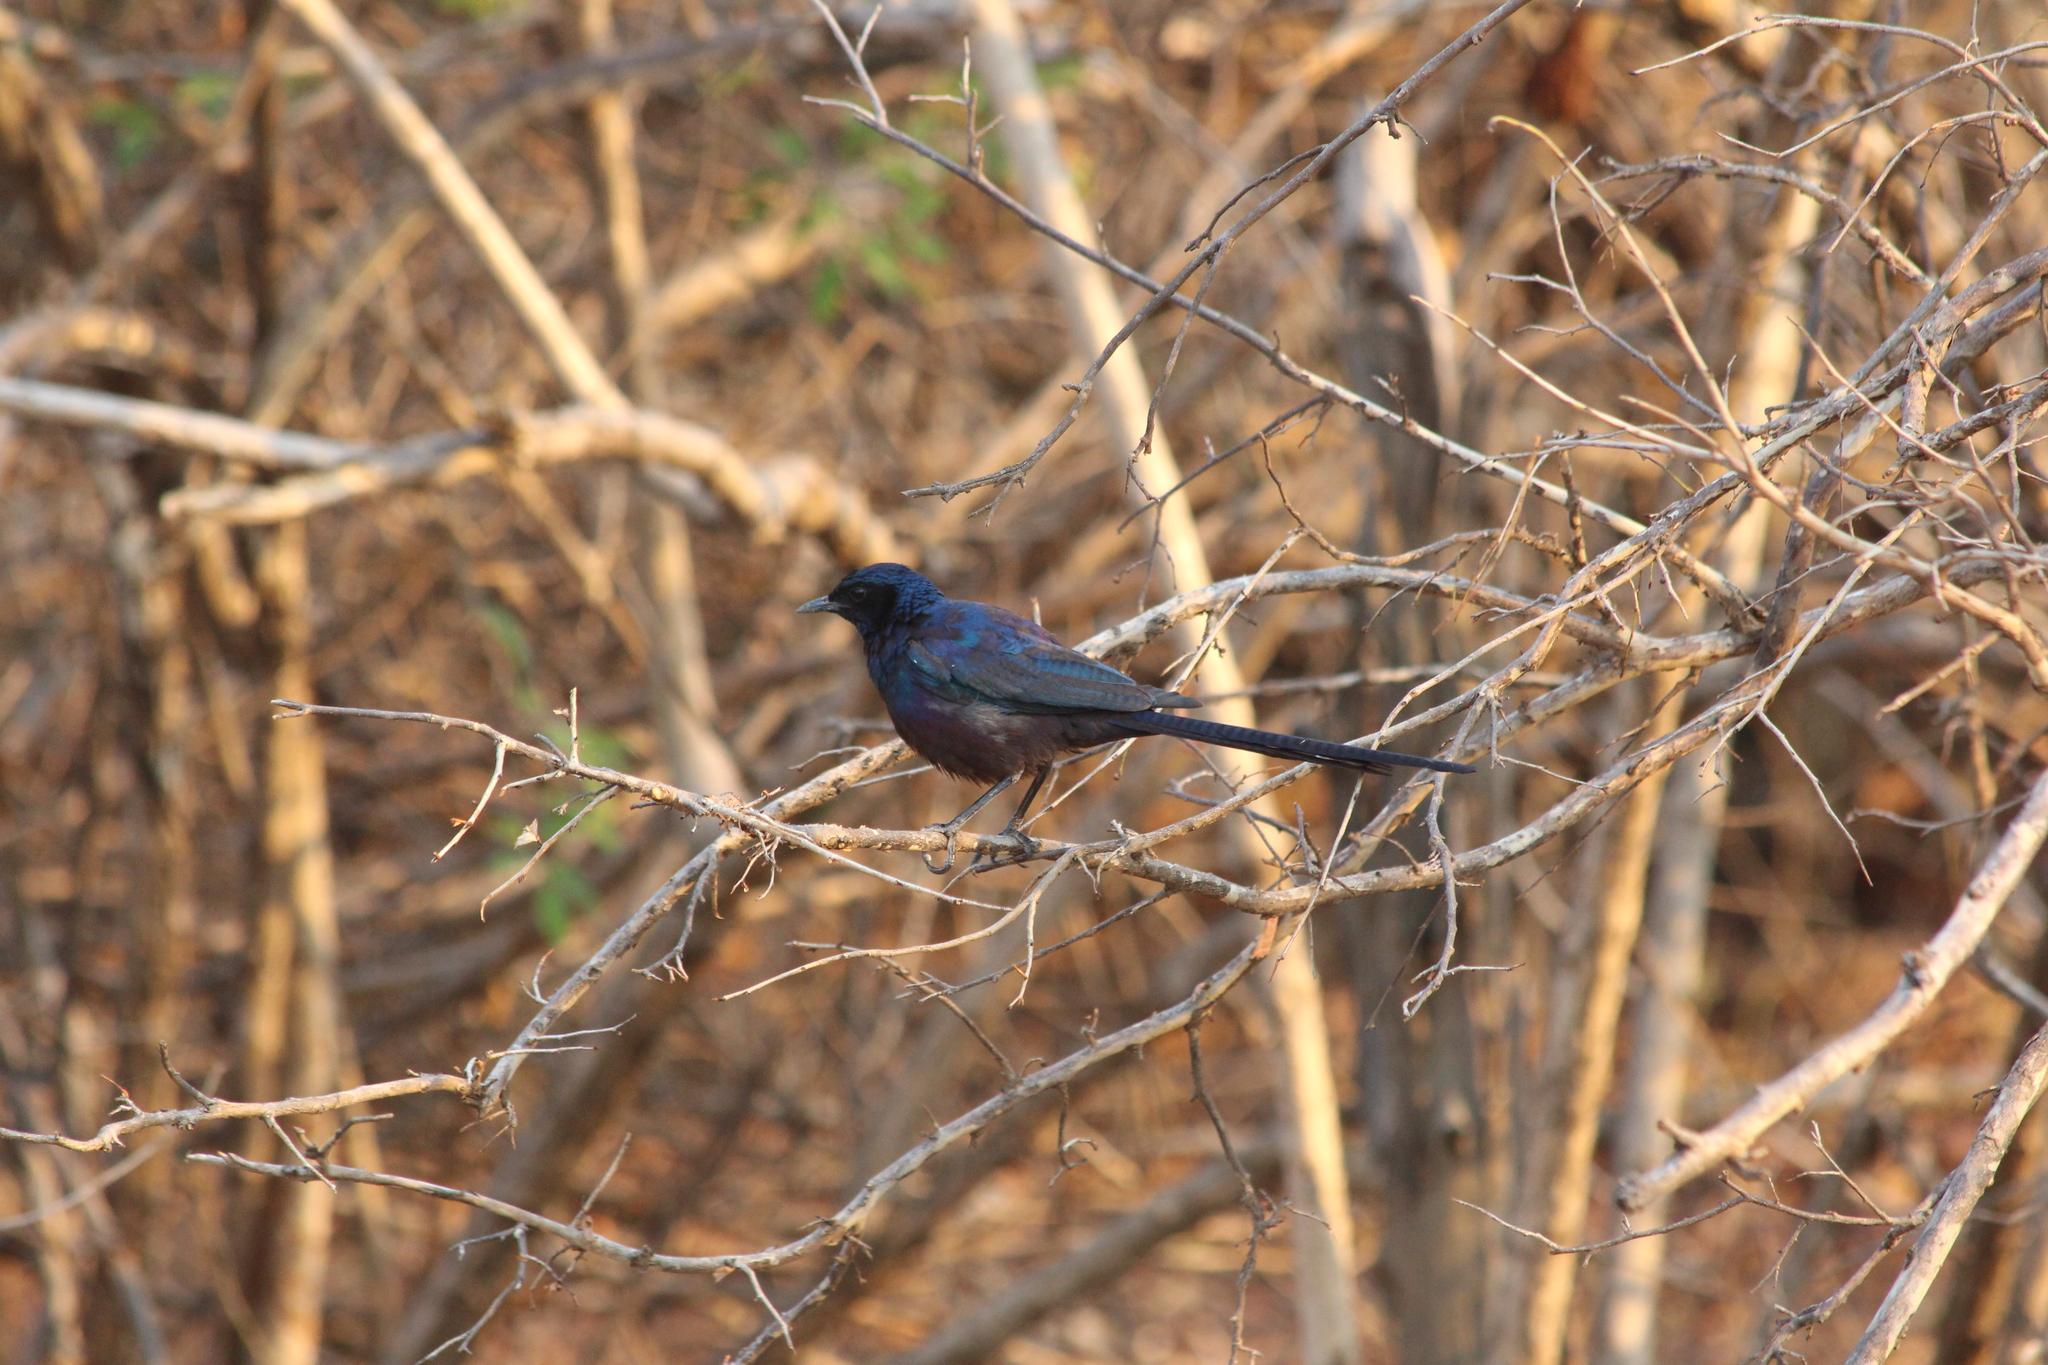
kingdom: Animalia
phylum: Chordata
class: Aves
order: Passeriformes
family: Sturnidae
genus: Lamprotornis
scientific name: Lamprotornis mevesii
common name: Meves's starling
